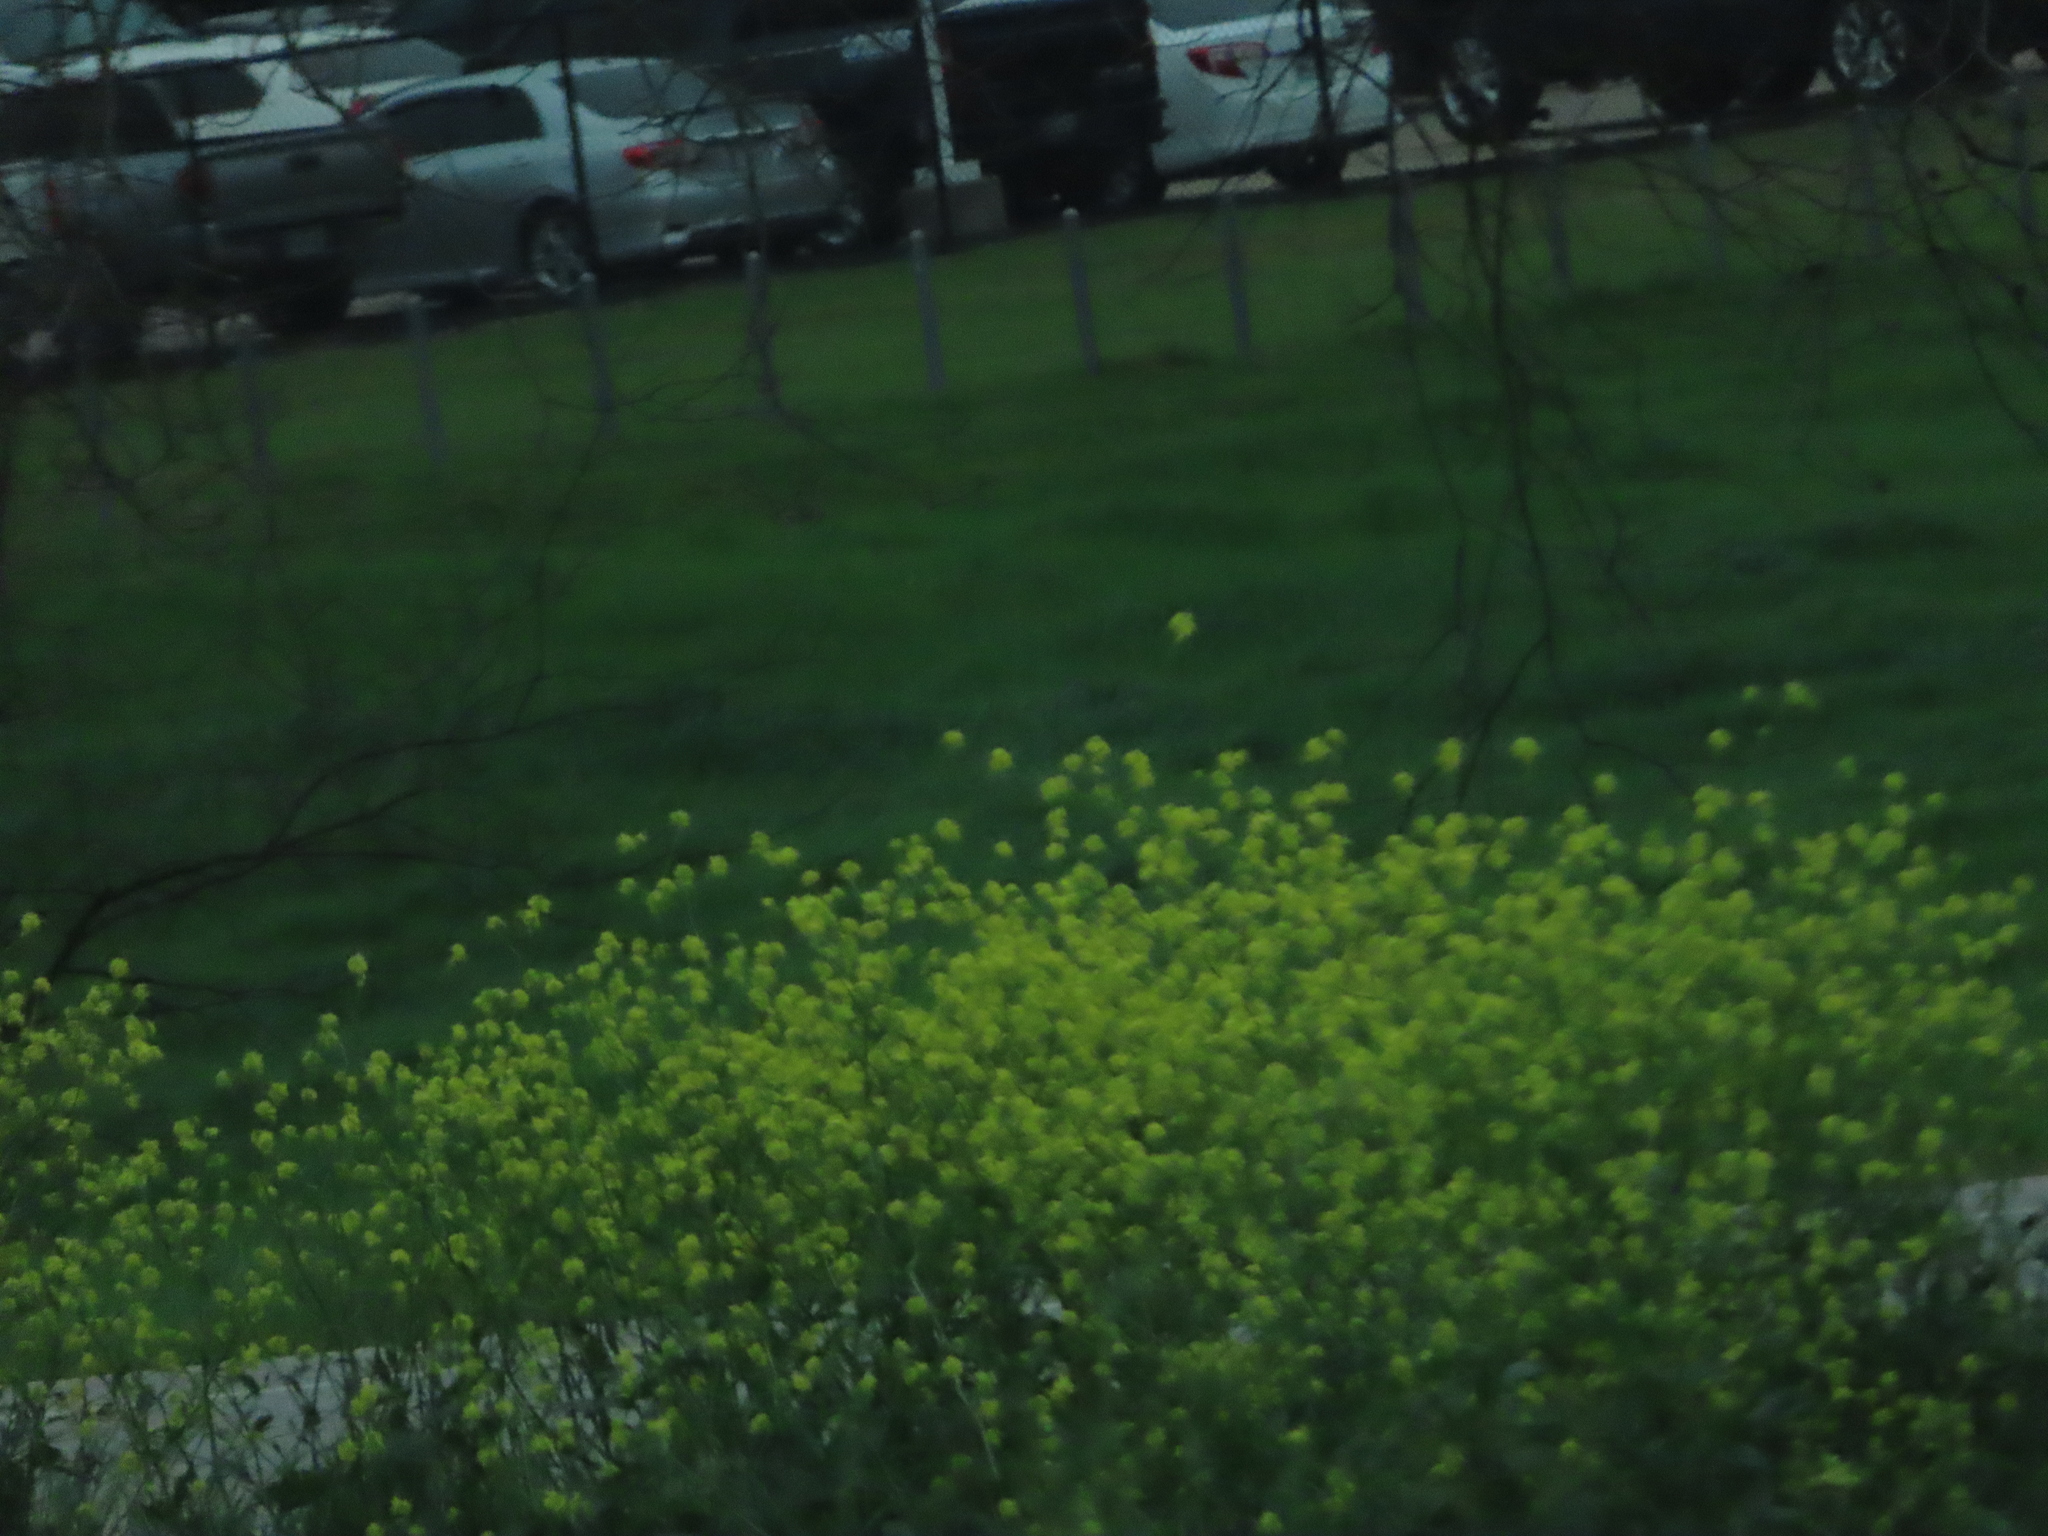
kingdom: Plantae
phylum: Tracheophyta
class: Magnoliopsida
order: Brassicales
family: Brassicaceae
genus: Rapistrum
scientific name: Rapistrum rugosum
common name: Annual bastardcabbage
